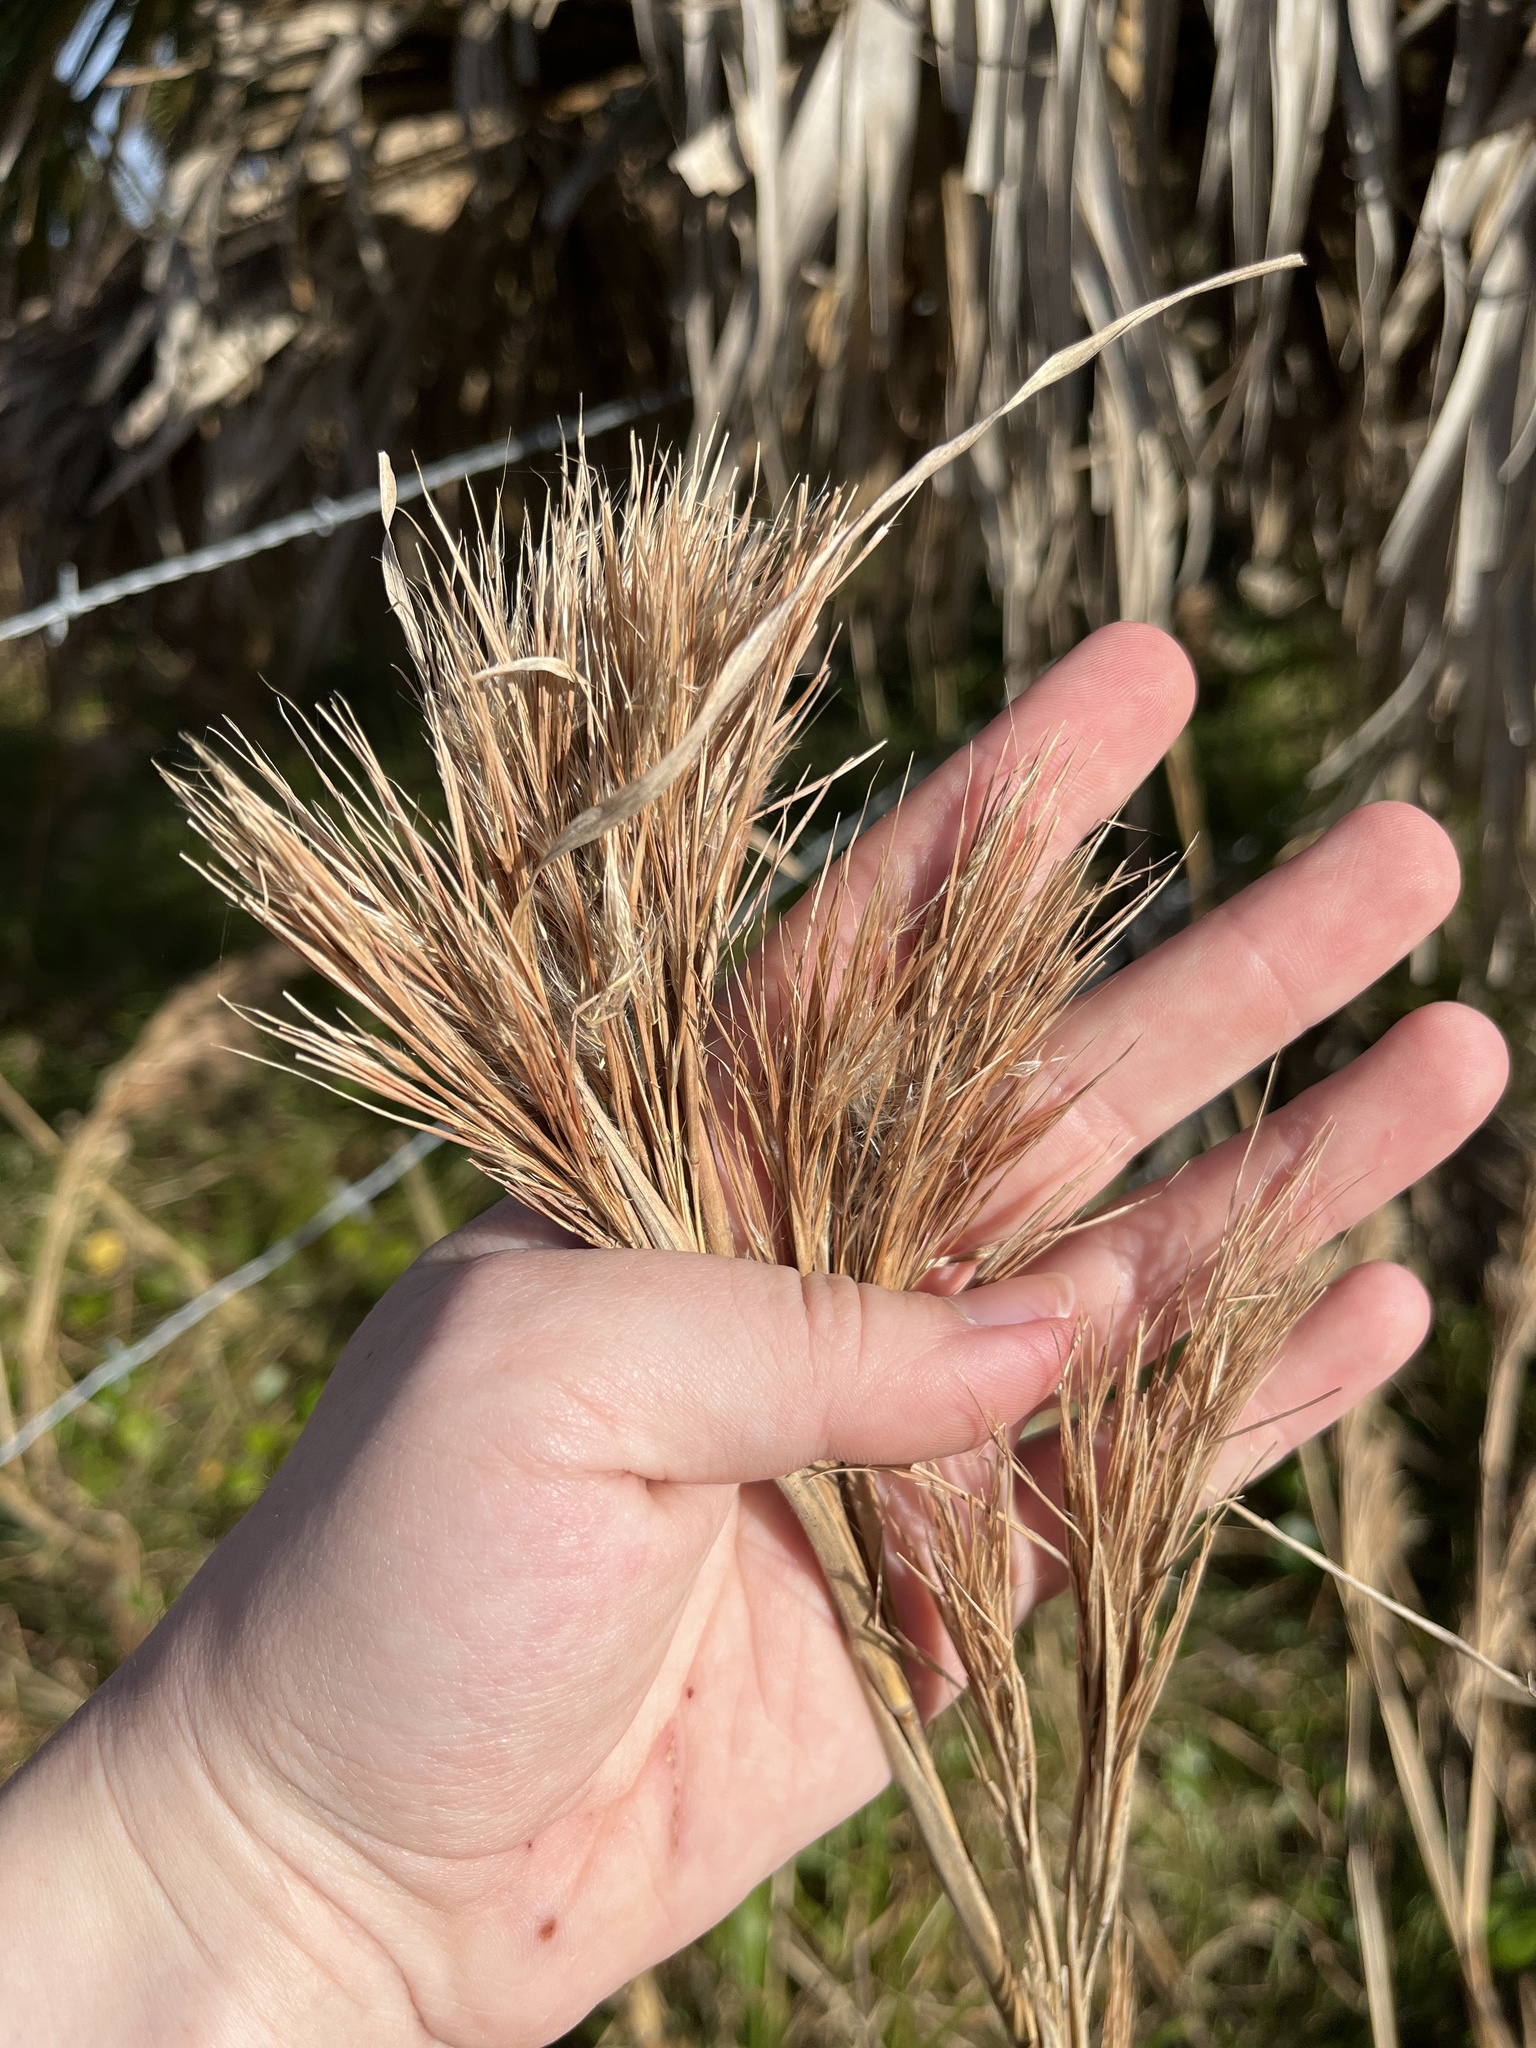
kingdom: Plantae
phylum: Tracheophyta
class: Liliopsida
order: Poales
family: Poaceae
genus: Andropogon
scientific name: Andropogon tenuispatheus
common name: Bushy bluestem
